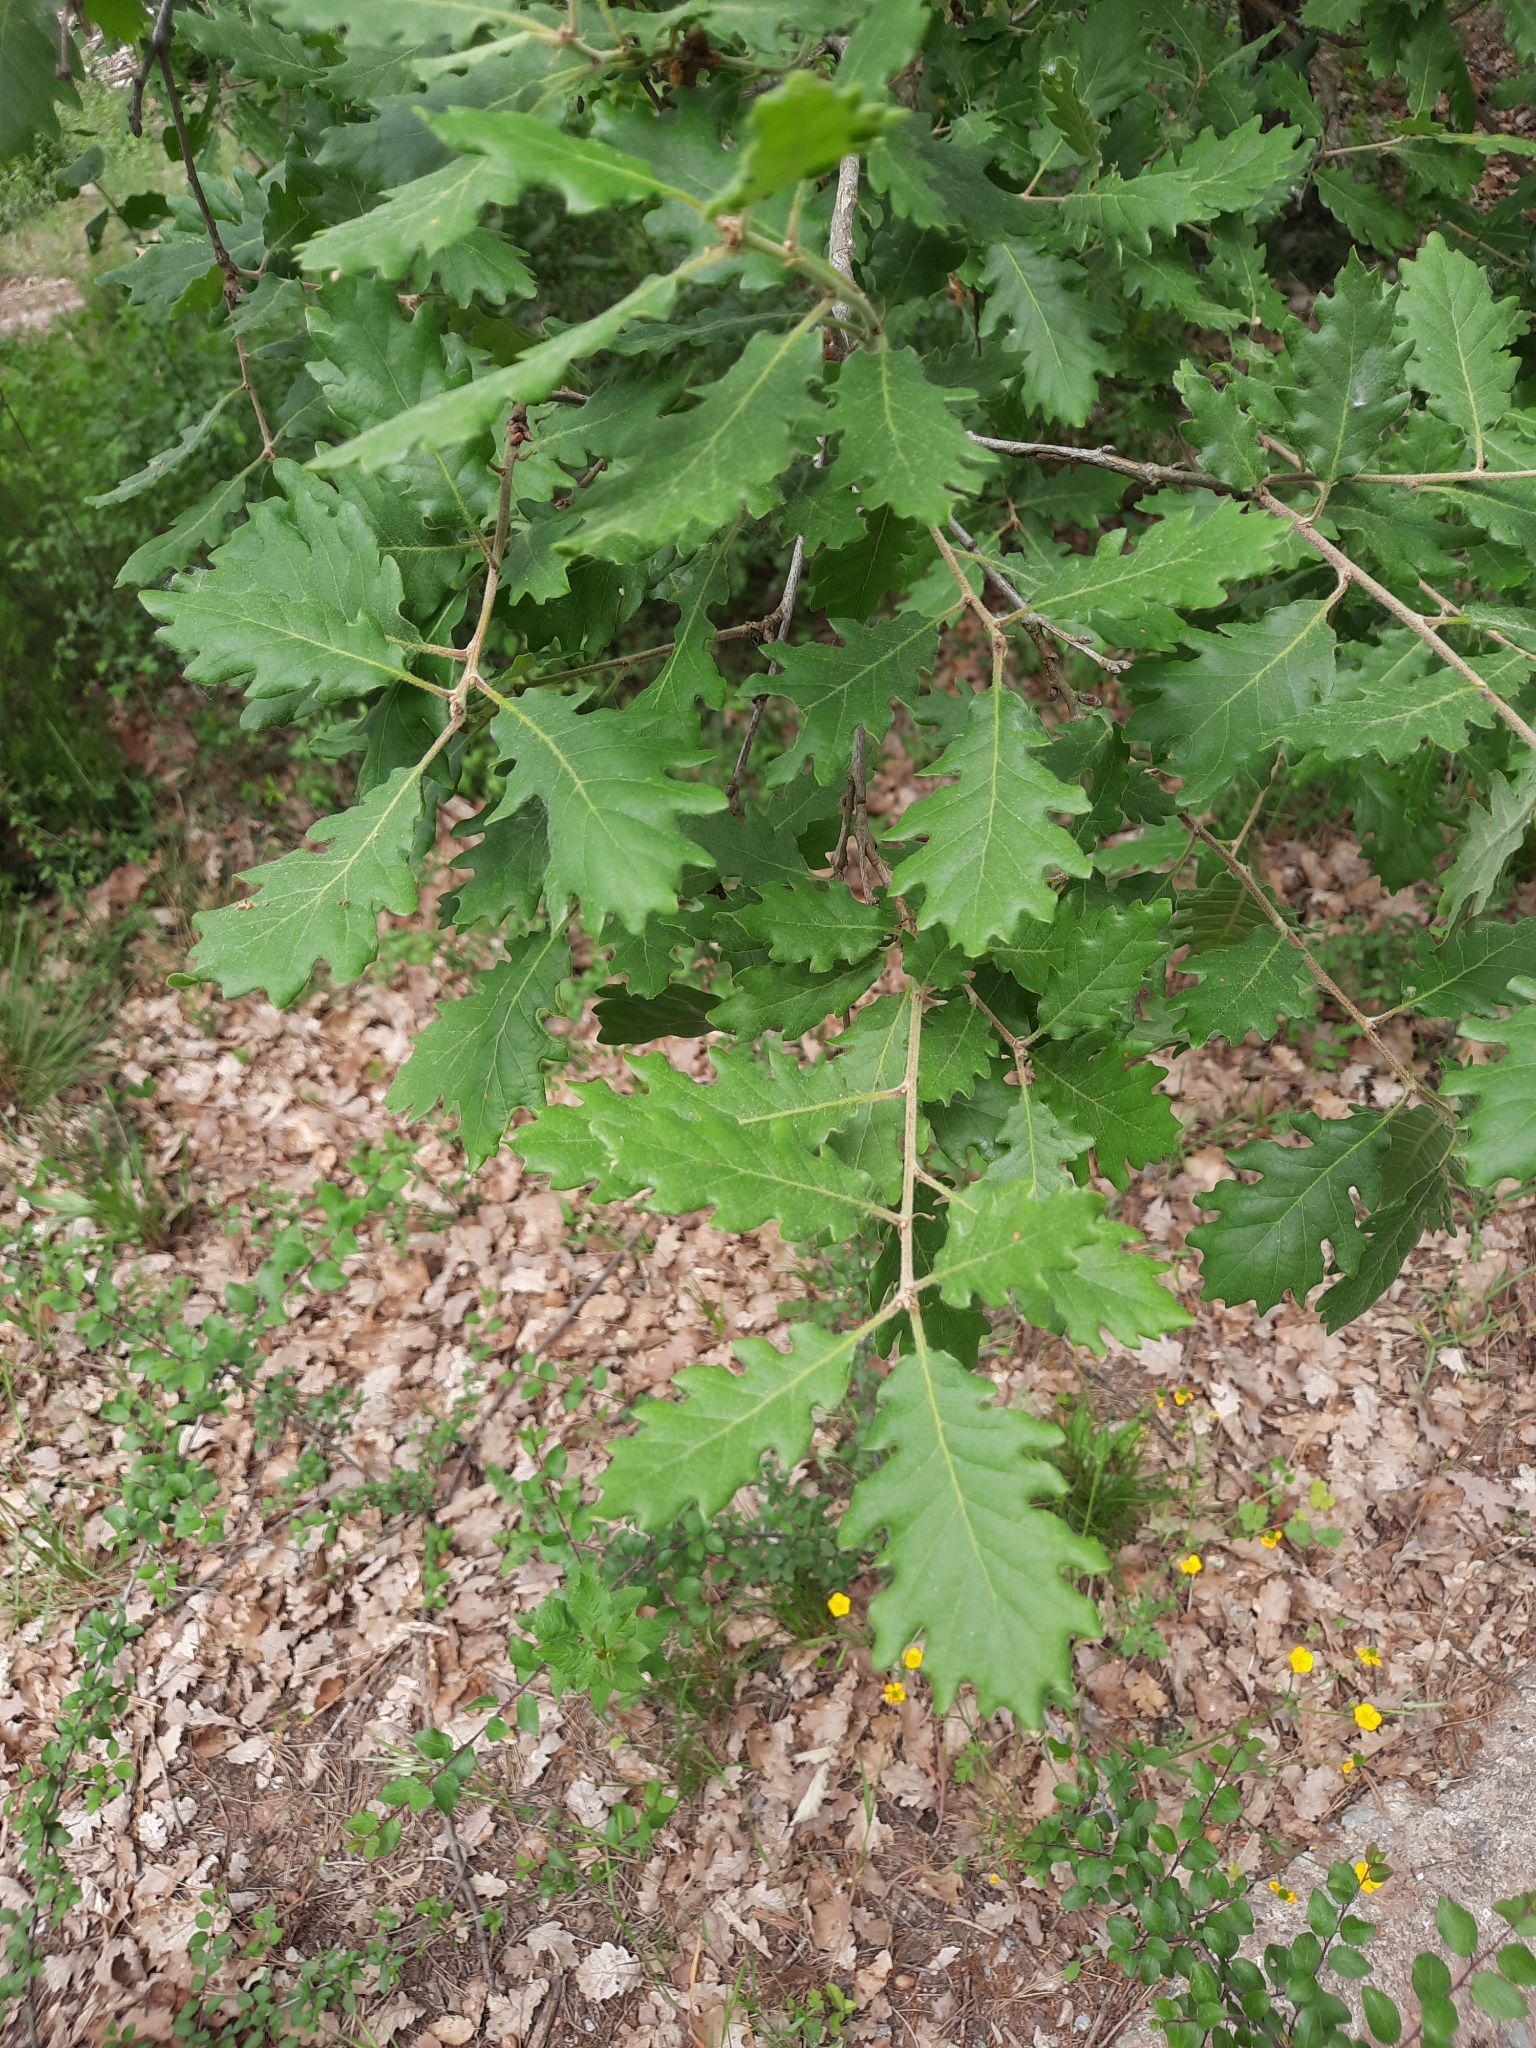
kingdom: Plantae
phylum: Tracheophyta
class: Magnoliopsida
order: Fagales
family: Fagaceae
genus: Quercus
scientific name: Quercus pubescens
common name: Downy oak
